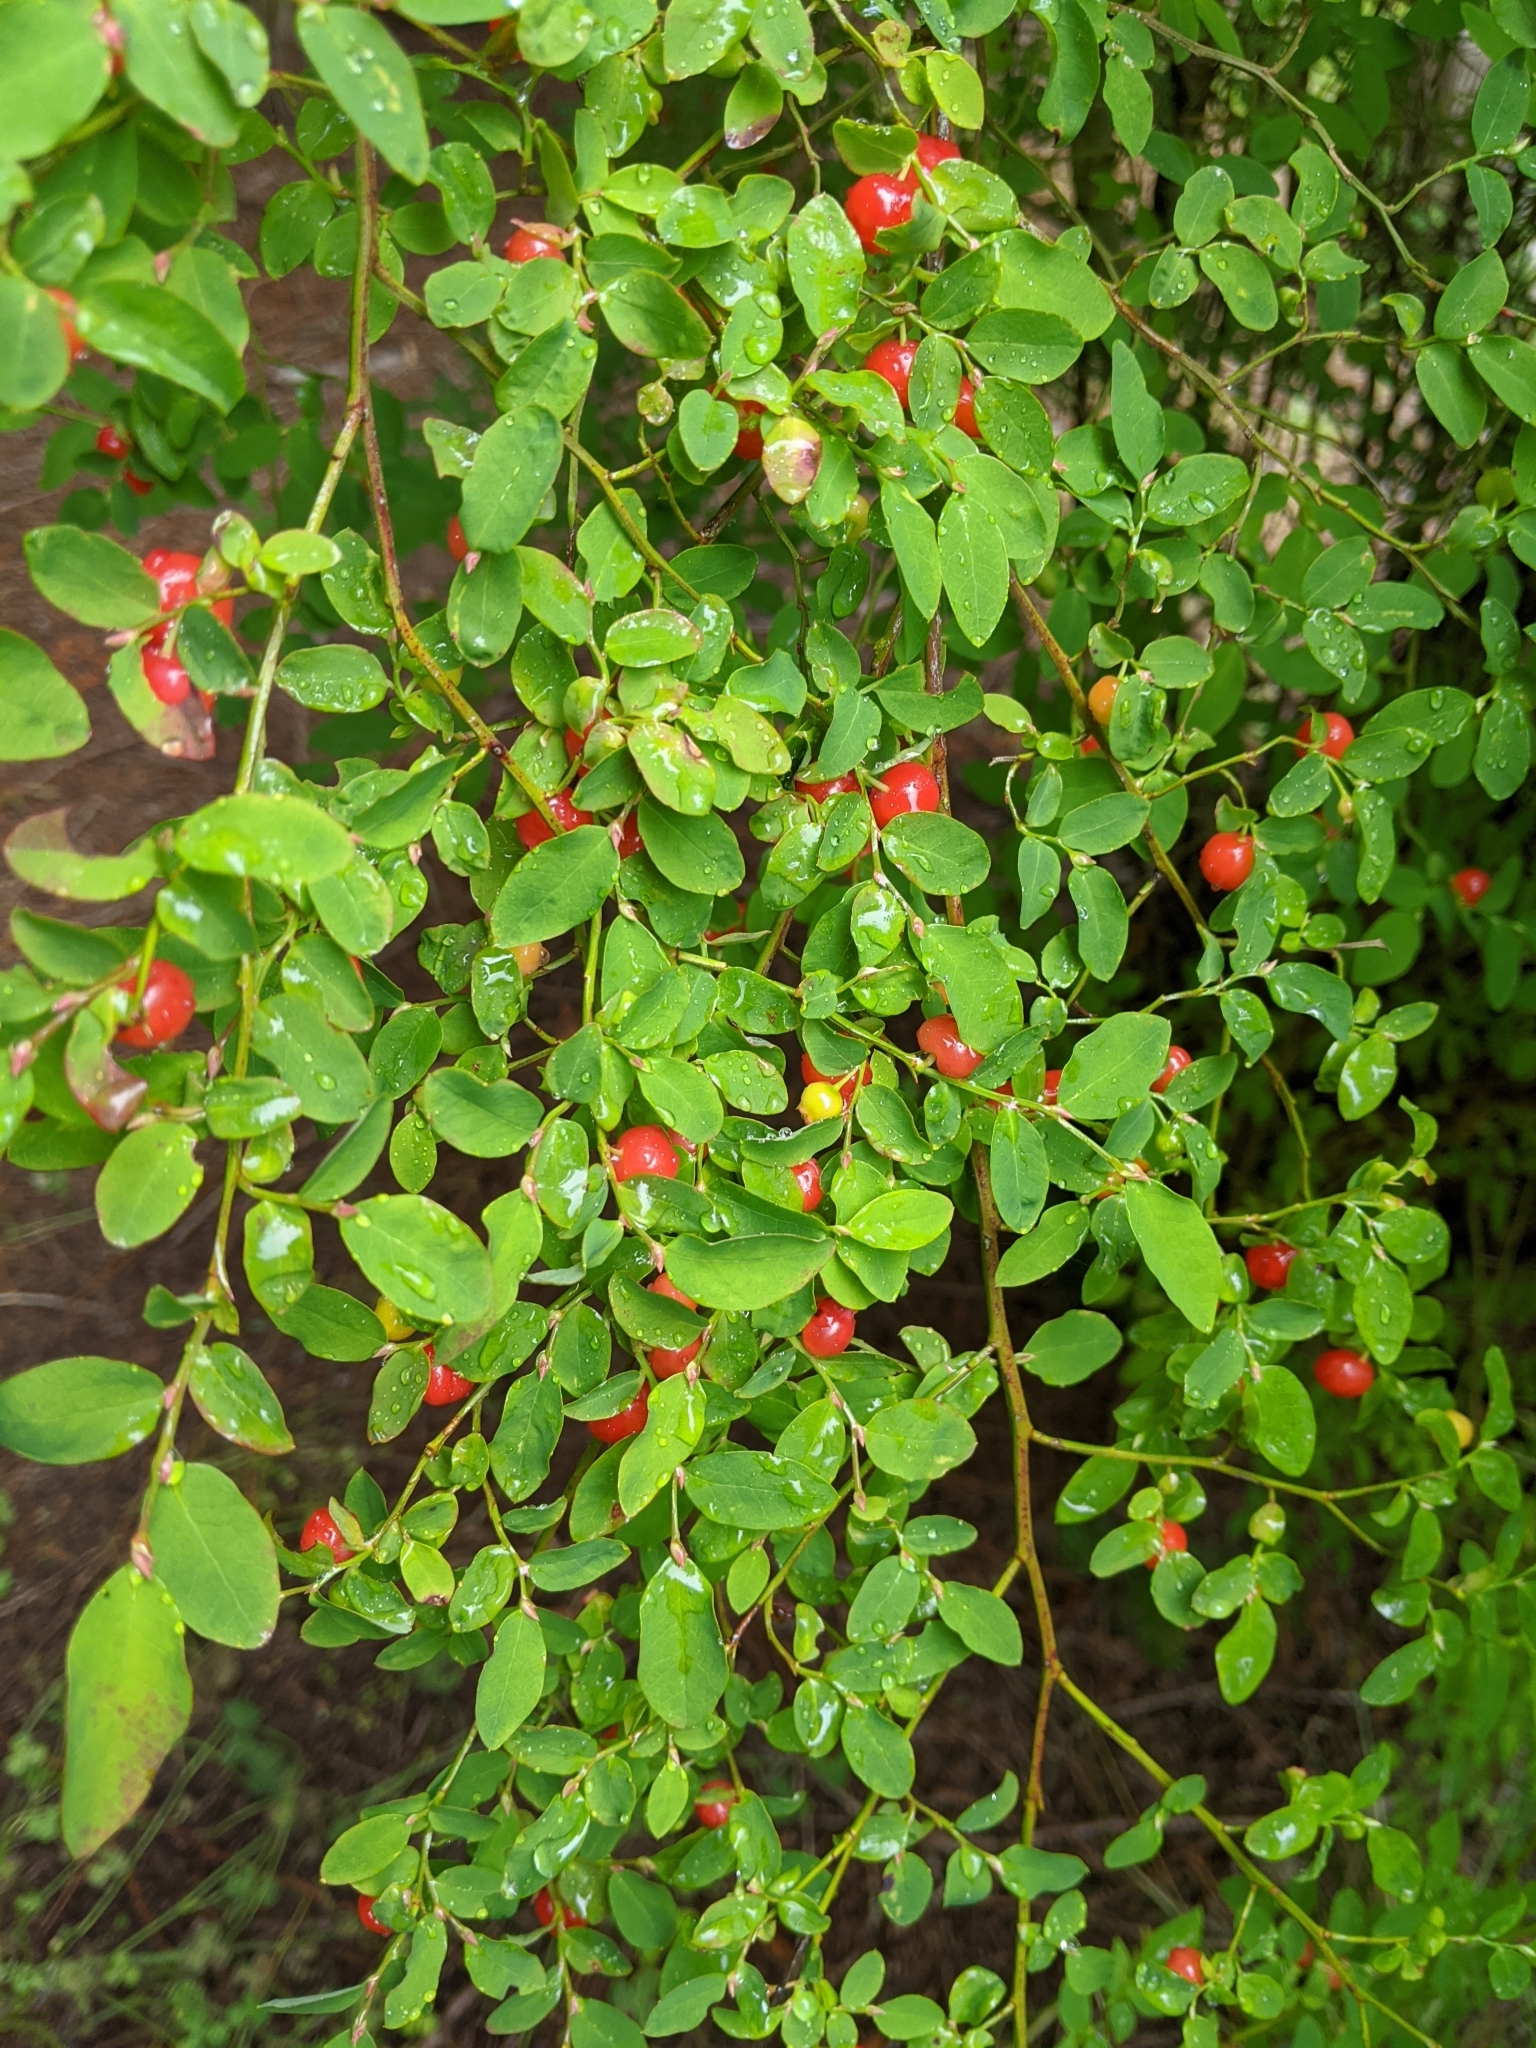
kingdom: Plantae
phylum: Tracheophyta
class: Magnoliopsida
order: Ericales
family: Ericaceae
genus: Vaccinium
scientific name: Vaccinium parvifolium
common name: Red-huckleberry
